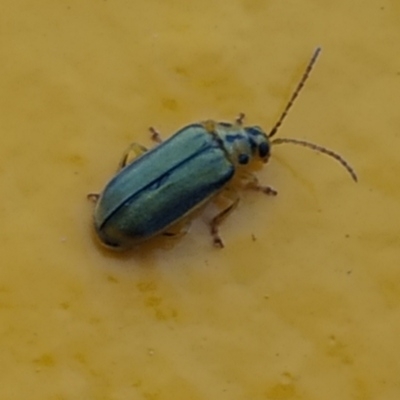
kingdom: Animalia
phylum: Arthropoda
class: Insecta
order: Coleoptera
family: Chrysomelidae
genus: Xanthogaleruca
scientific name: Xanthogaleruca luteola
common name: Elm leaf beetle
